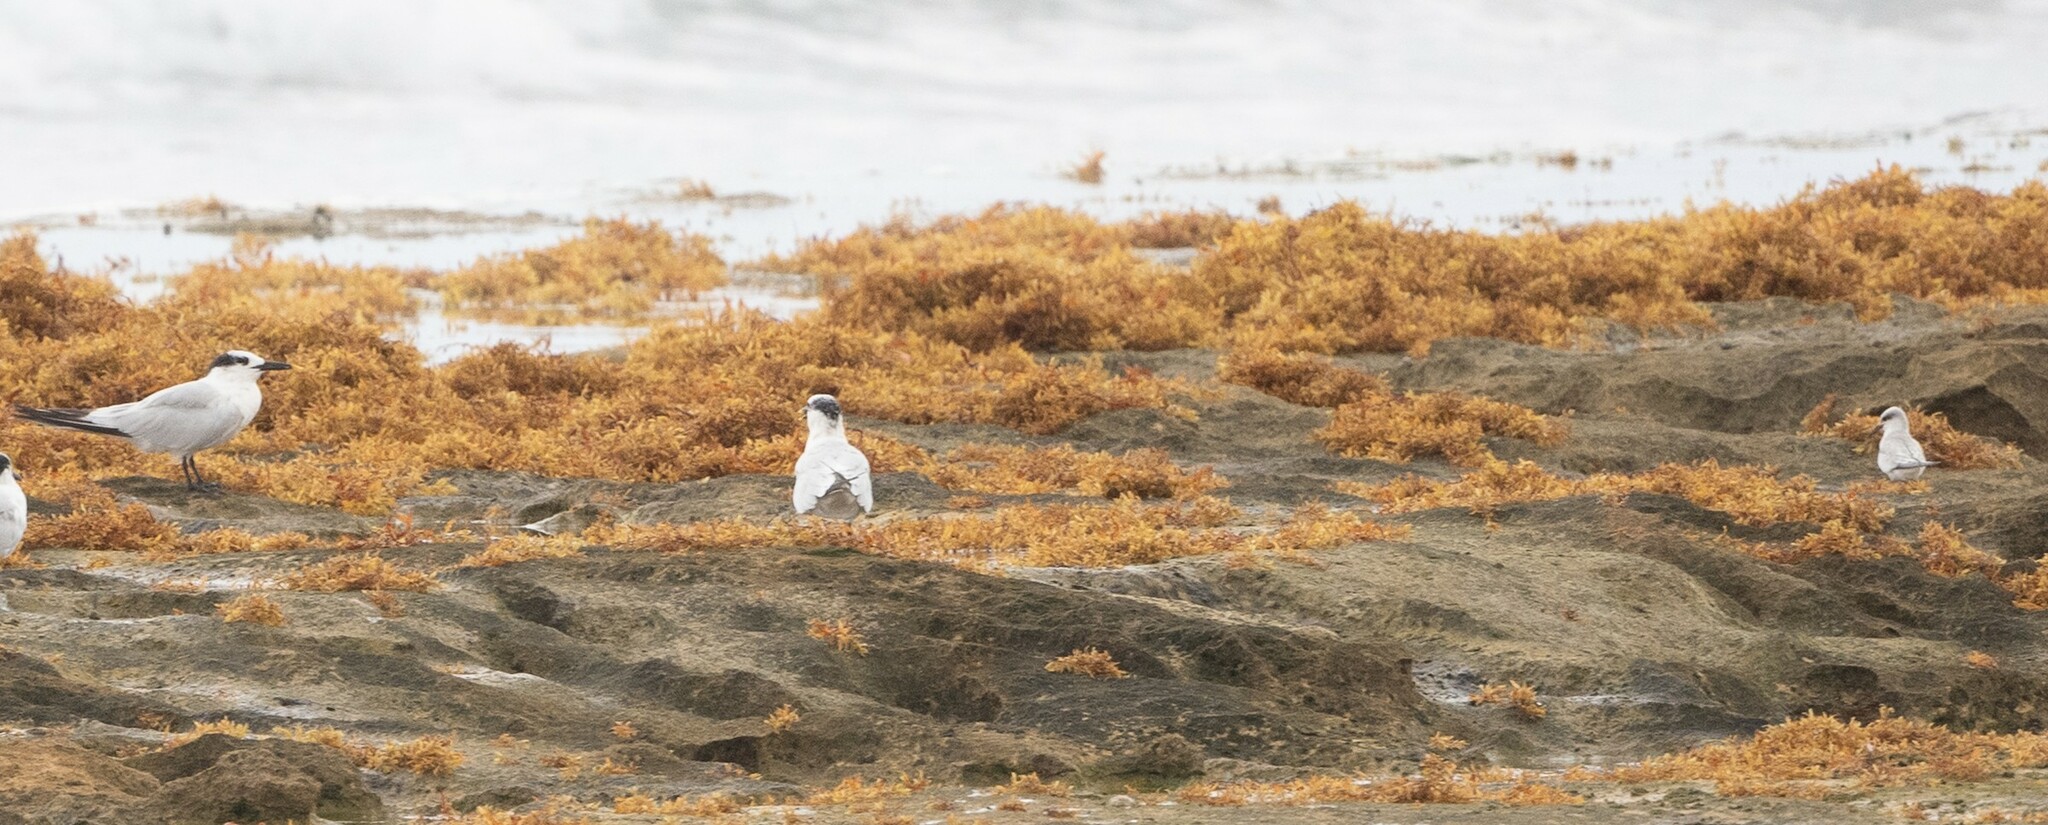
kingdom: Animalia
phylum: Chordata
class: Aves
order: Charadriiformes
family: Laridae
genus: Sternula
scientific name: Sternula antillarum
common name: Least tern
